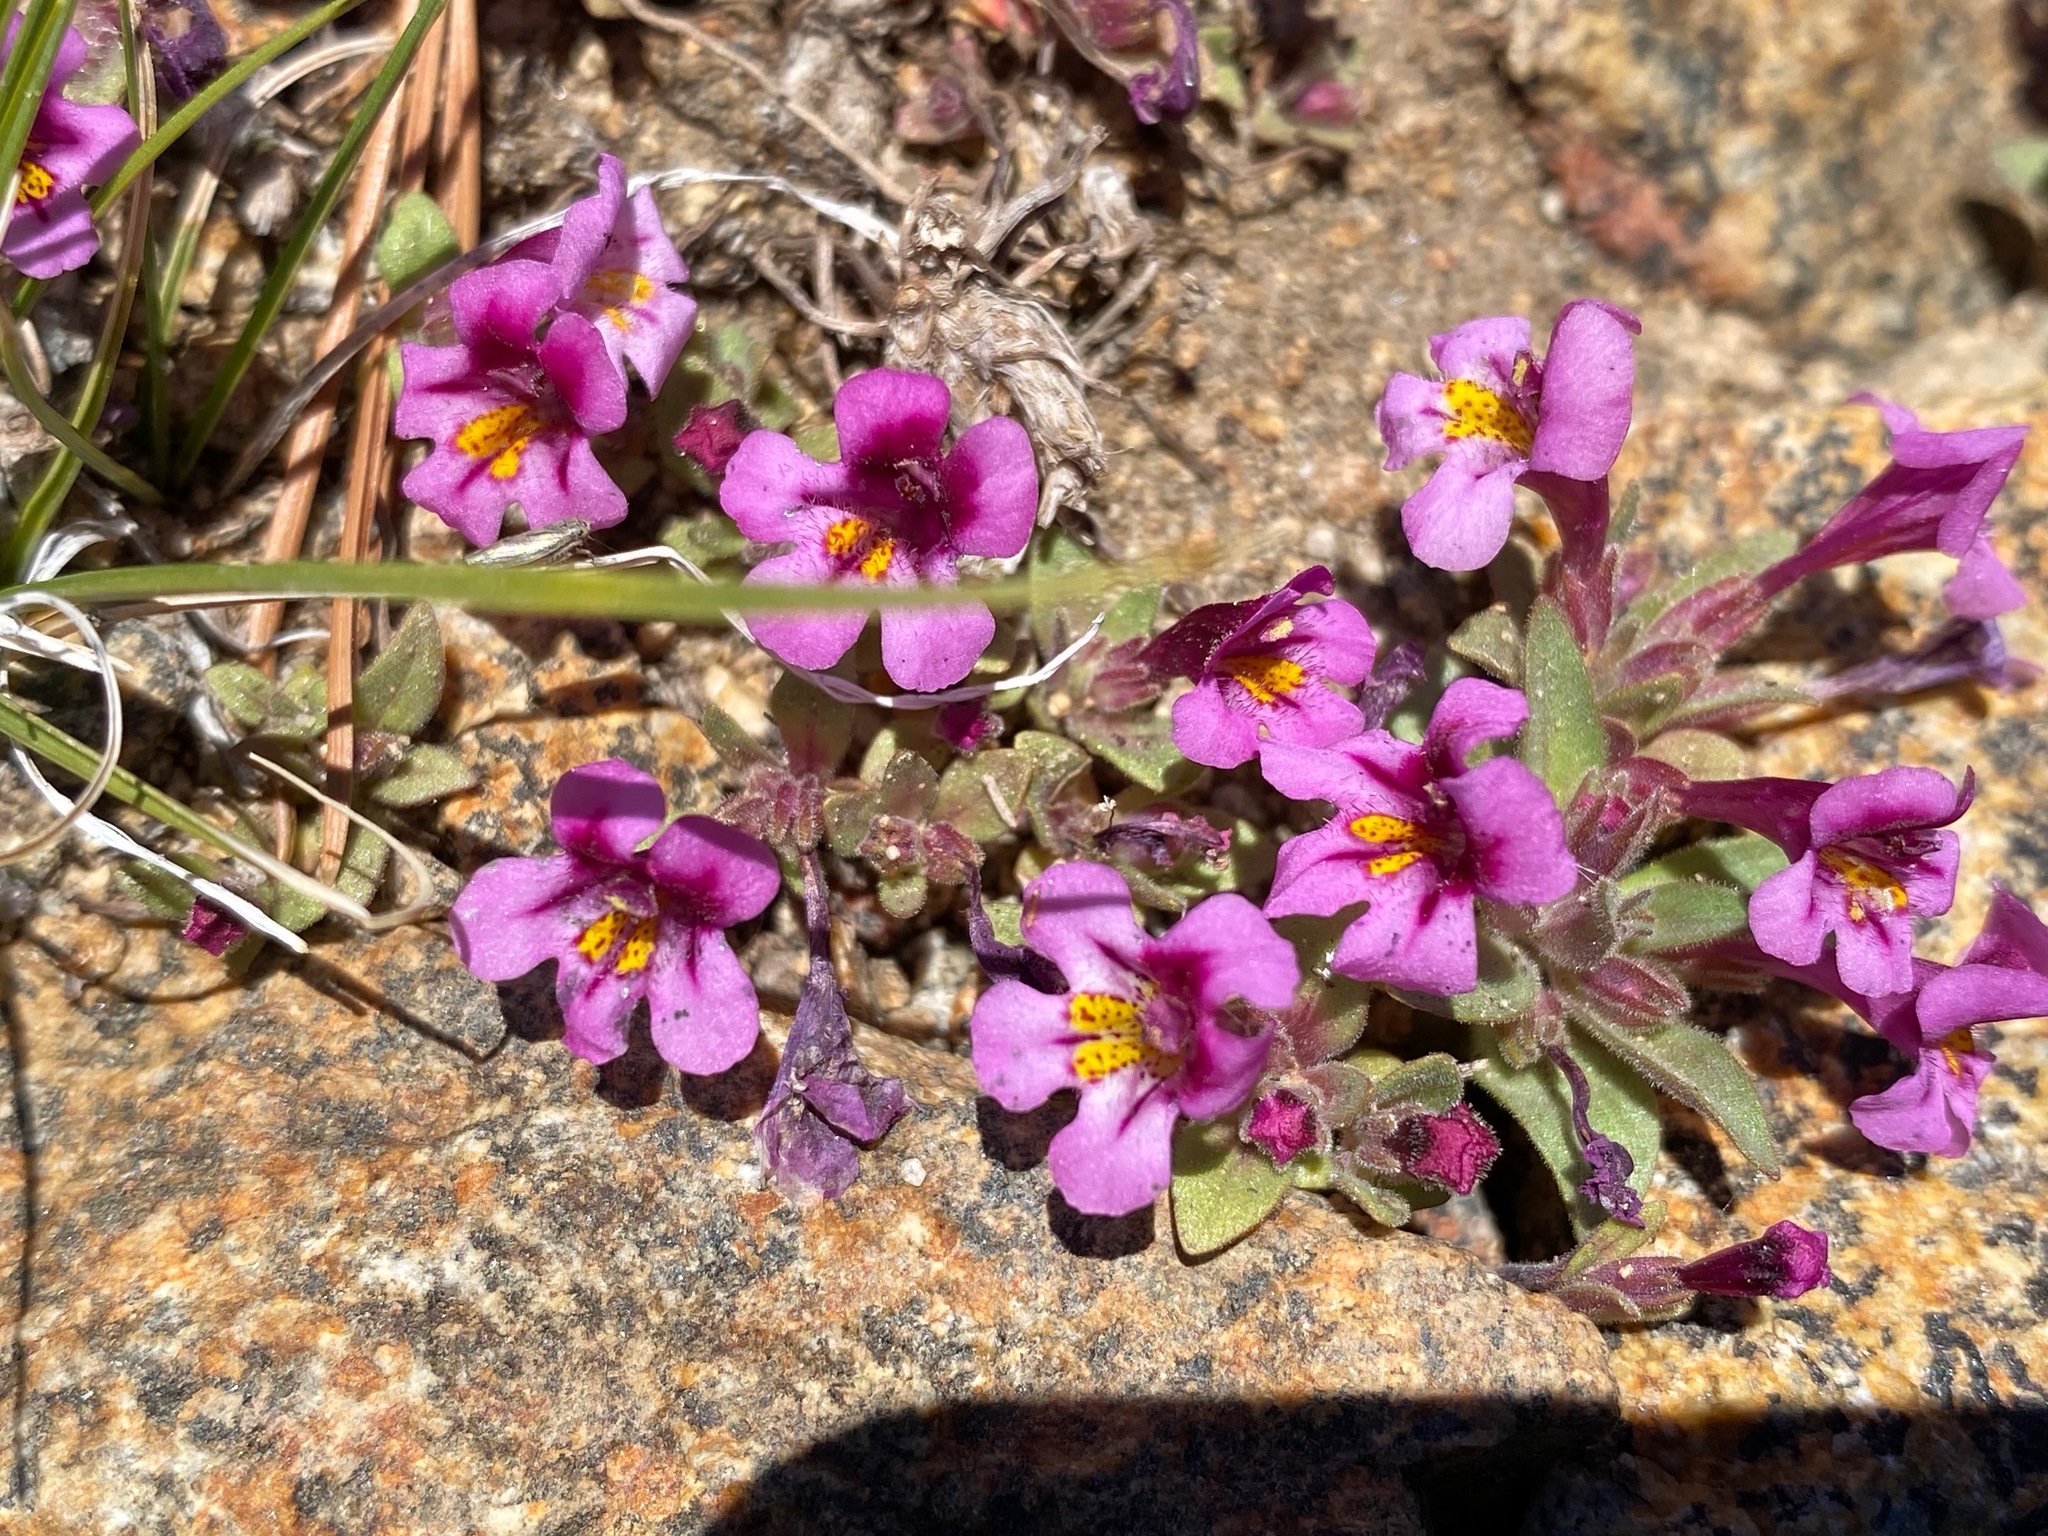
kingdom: Plantae
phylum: Tracheophyta
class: Magnoliopsida
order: Lamiales
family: Phrymaceae
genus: Diplacus
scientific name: Diplacus mephiticus
